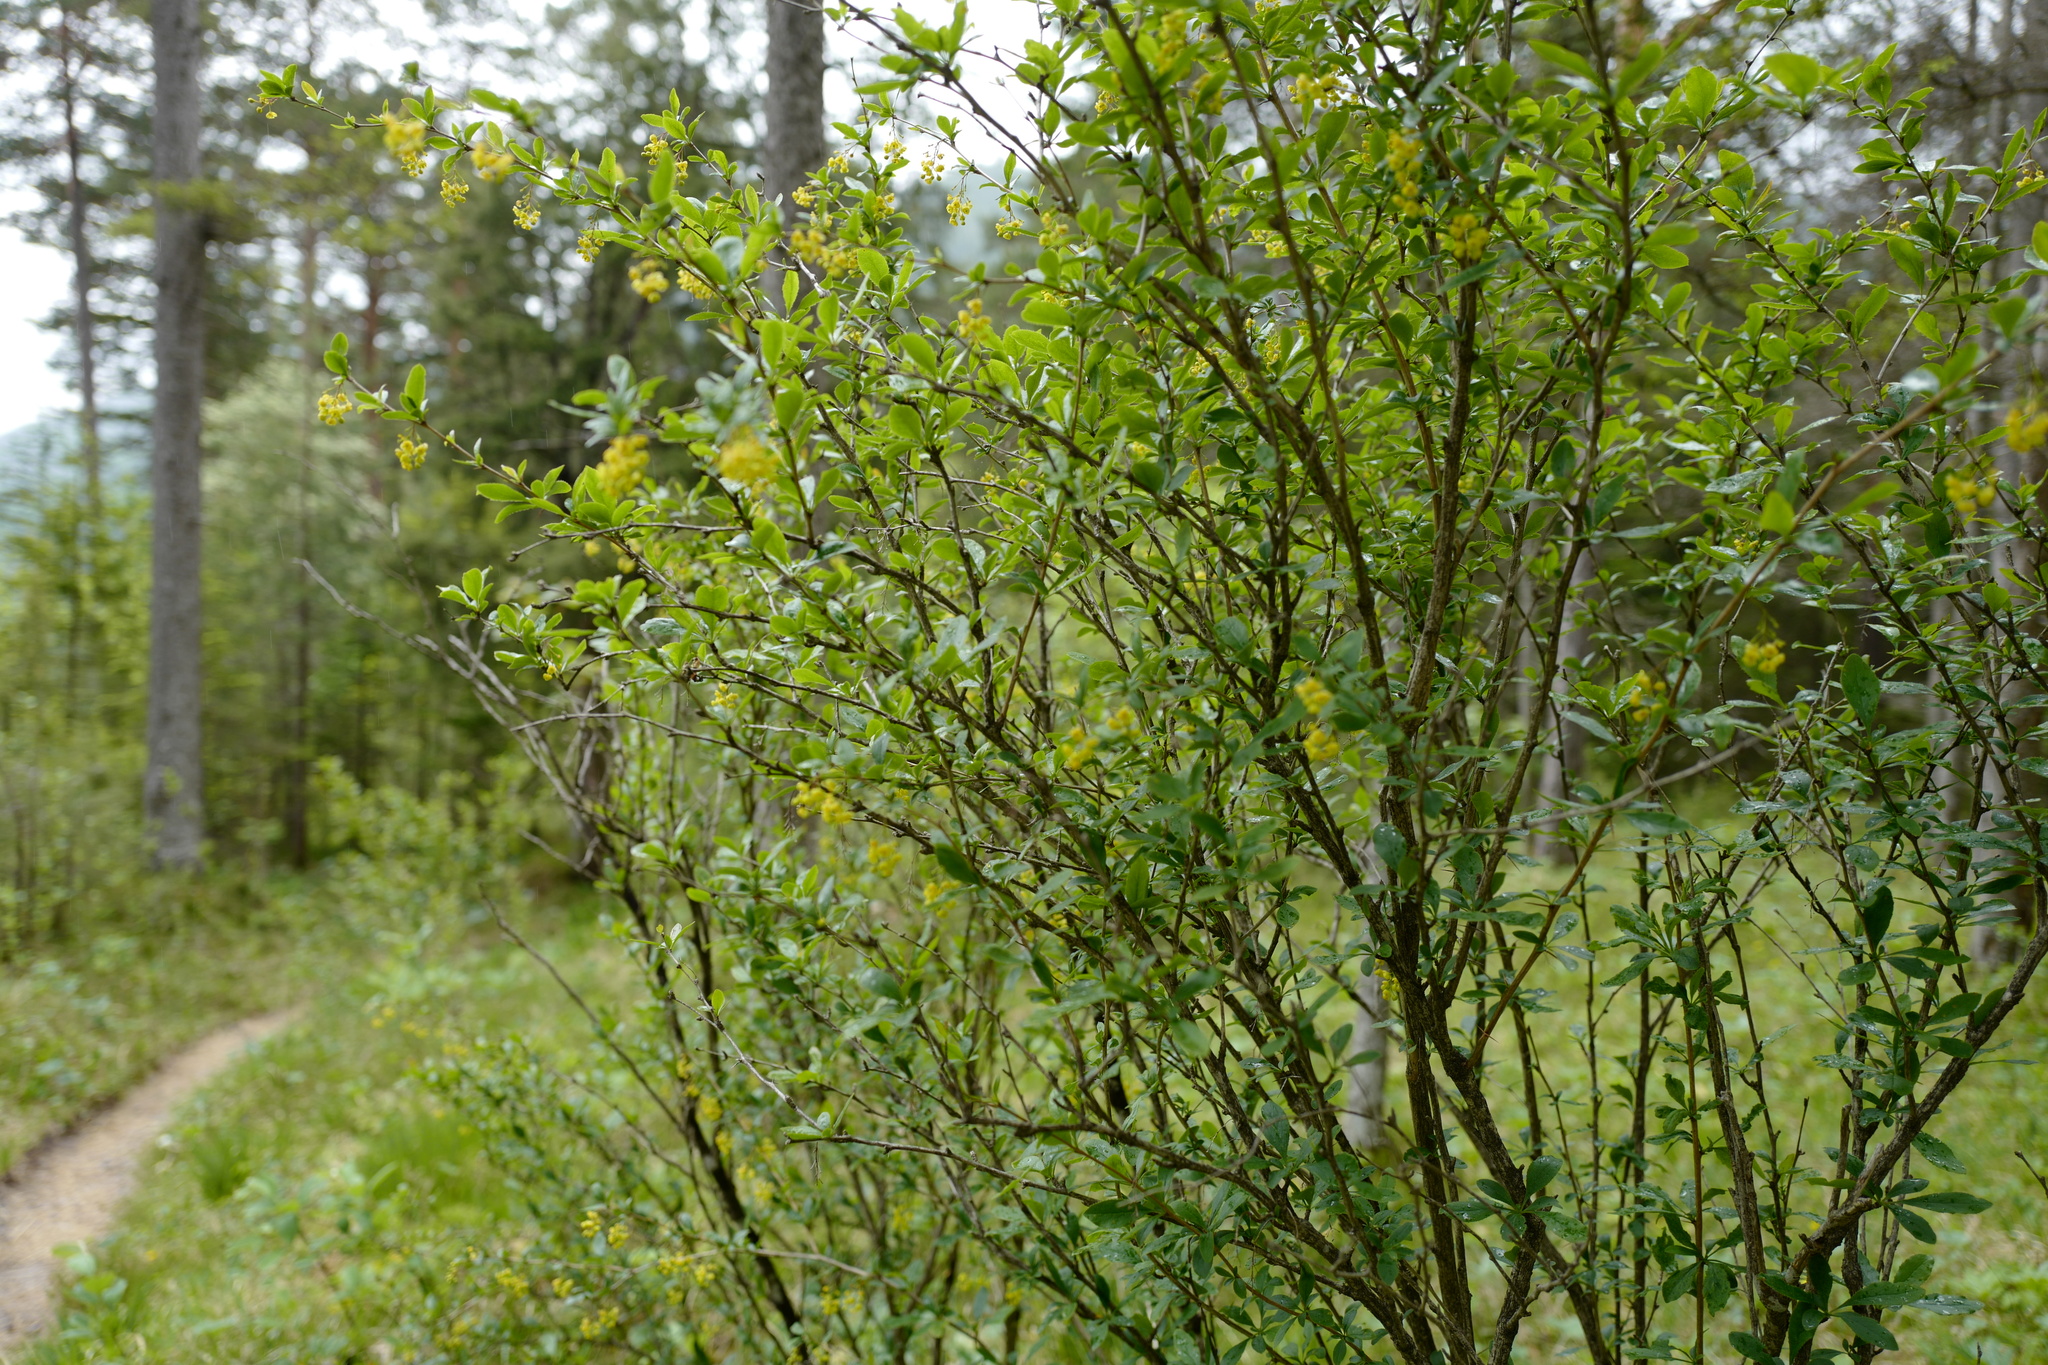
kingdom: Plantae
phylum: Tracheophyta
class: Magnoliopsida
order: Ranunculales
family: Berberidaceae
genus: Berberis
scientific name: Berberis vulgaris
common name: Barberry
